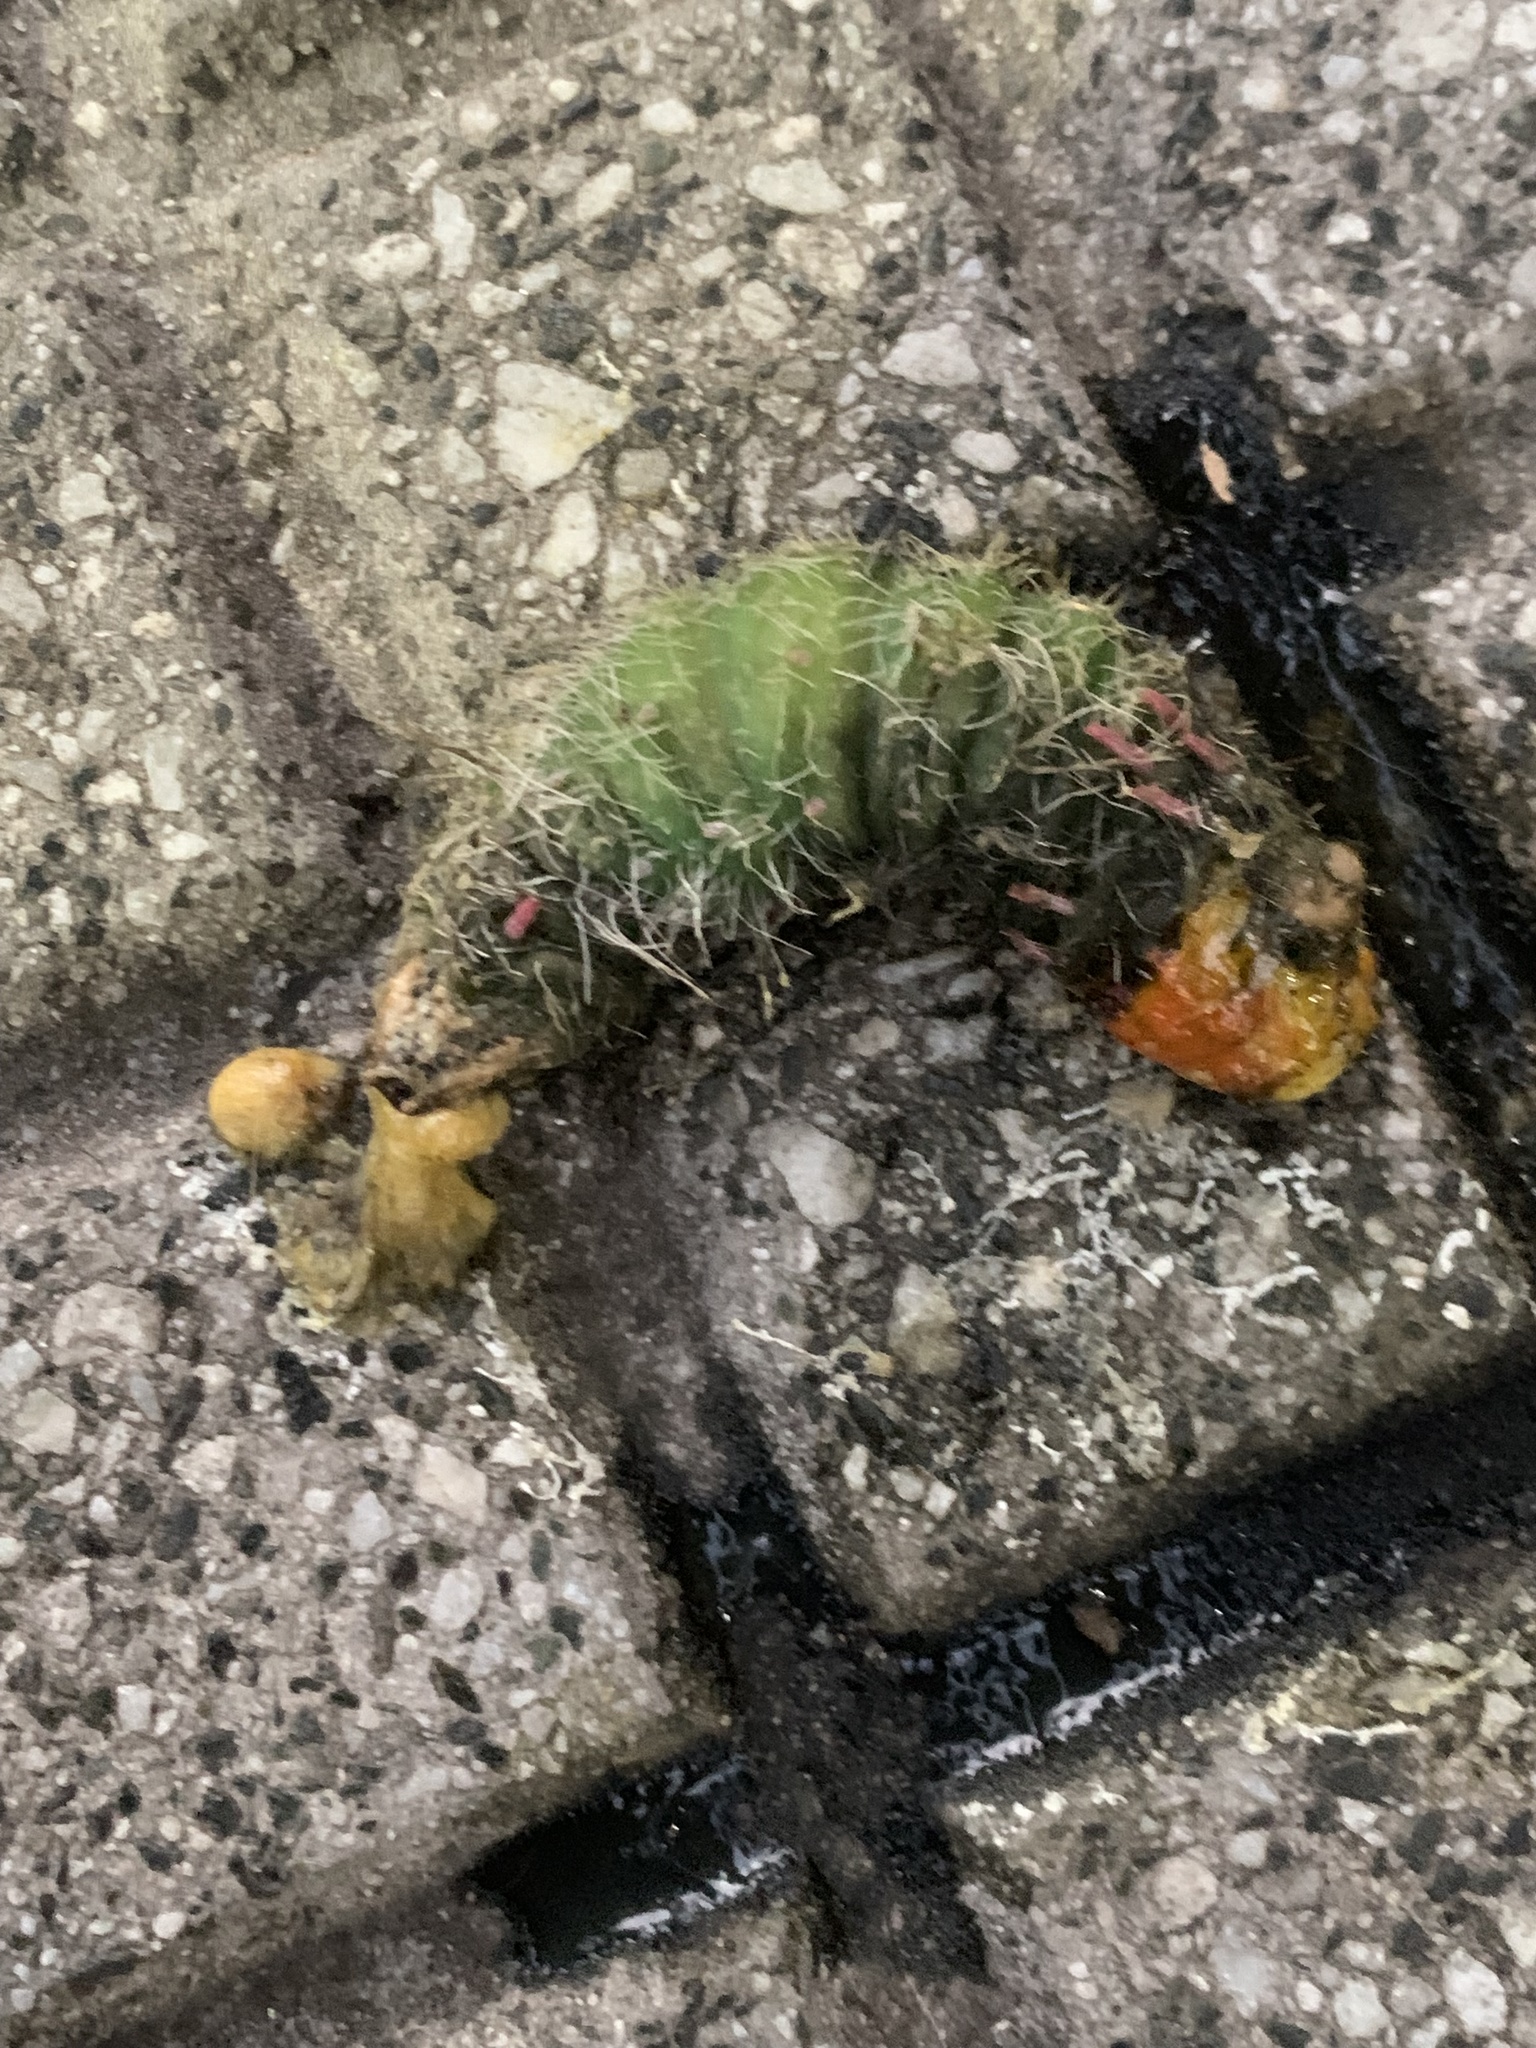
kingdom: Animalia
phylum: Arthropoda
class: Insecta
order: Lepidoptera
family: Saturniidae
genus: Eacles
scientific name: Eacles imperialis
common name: Imperial moth
